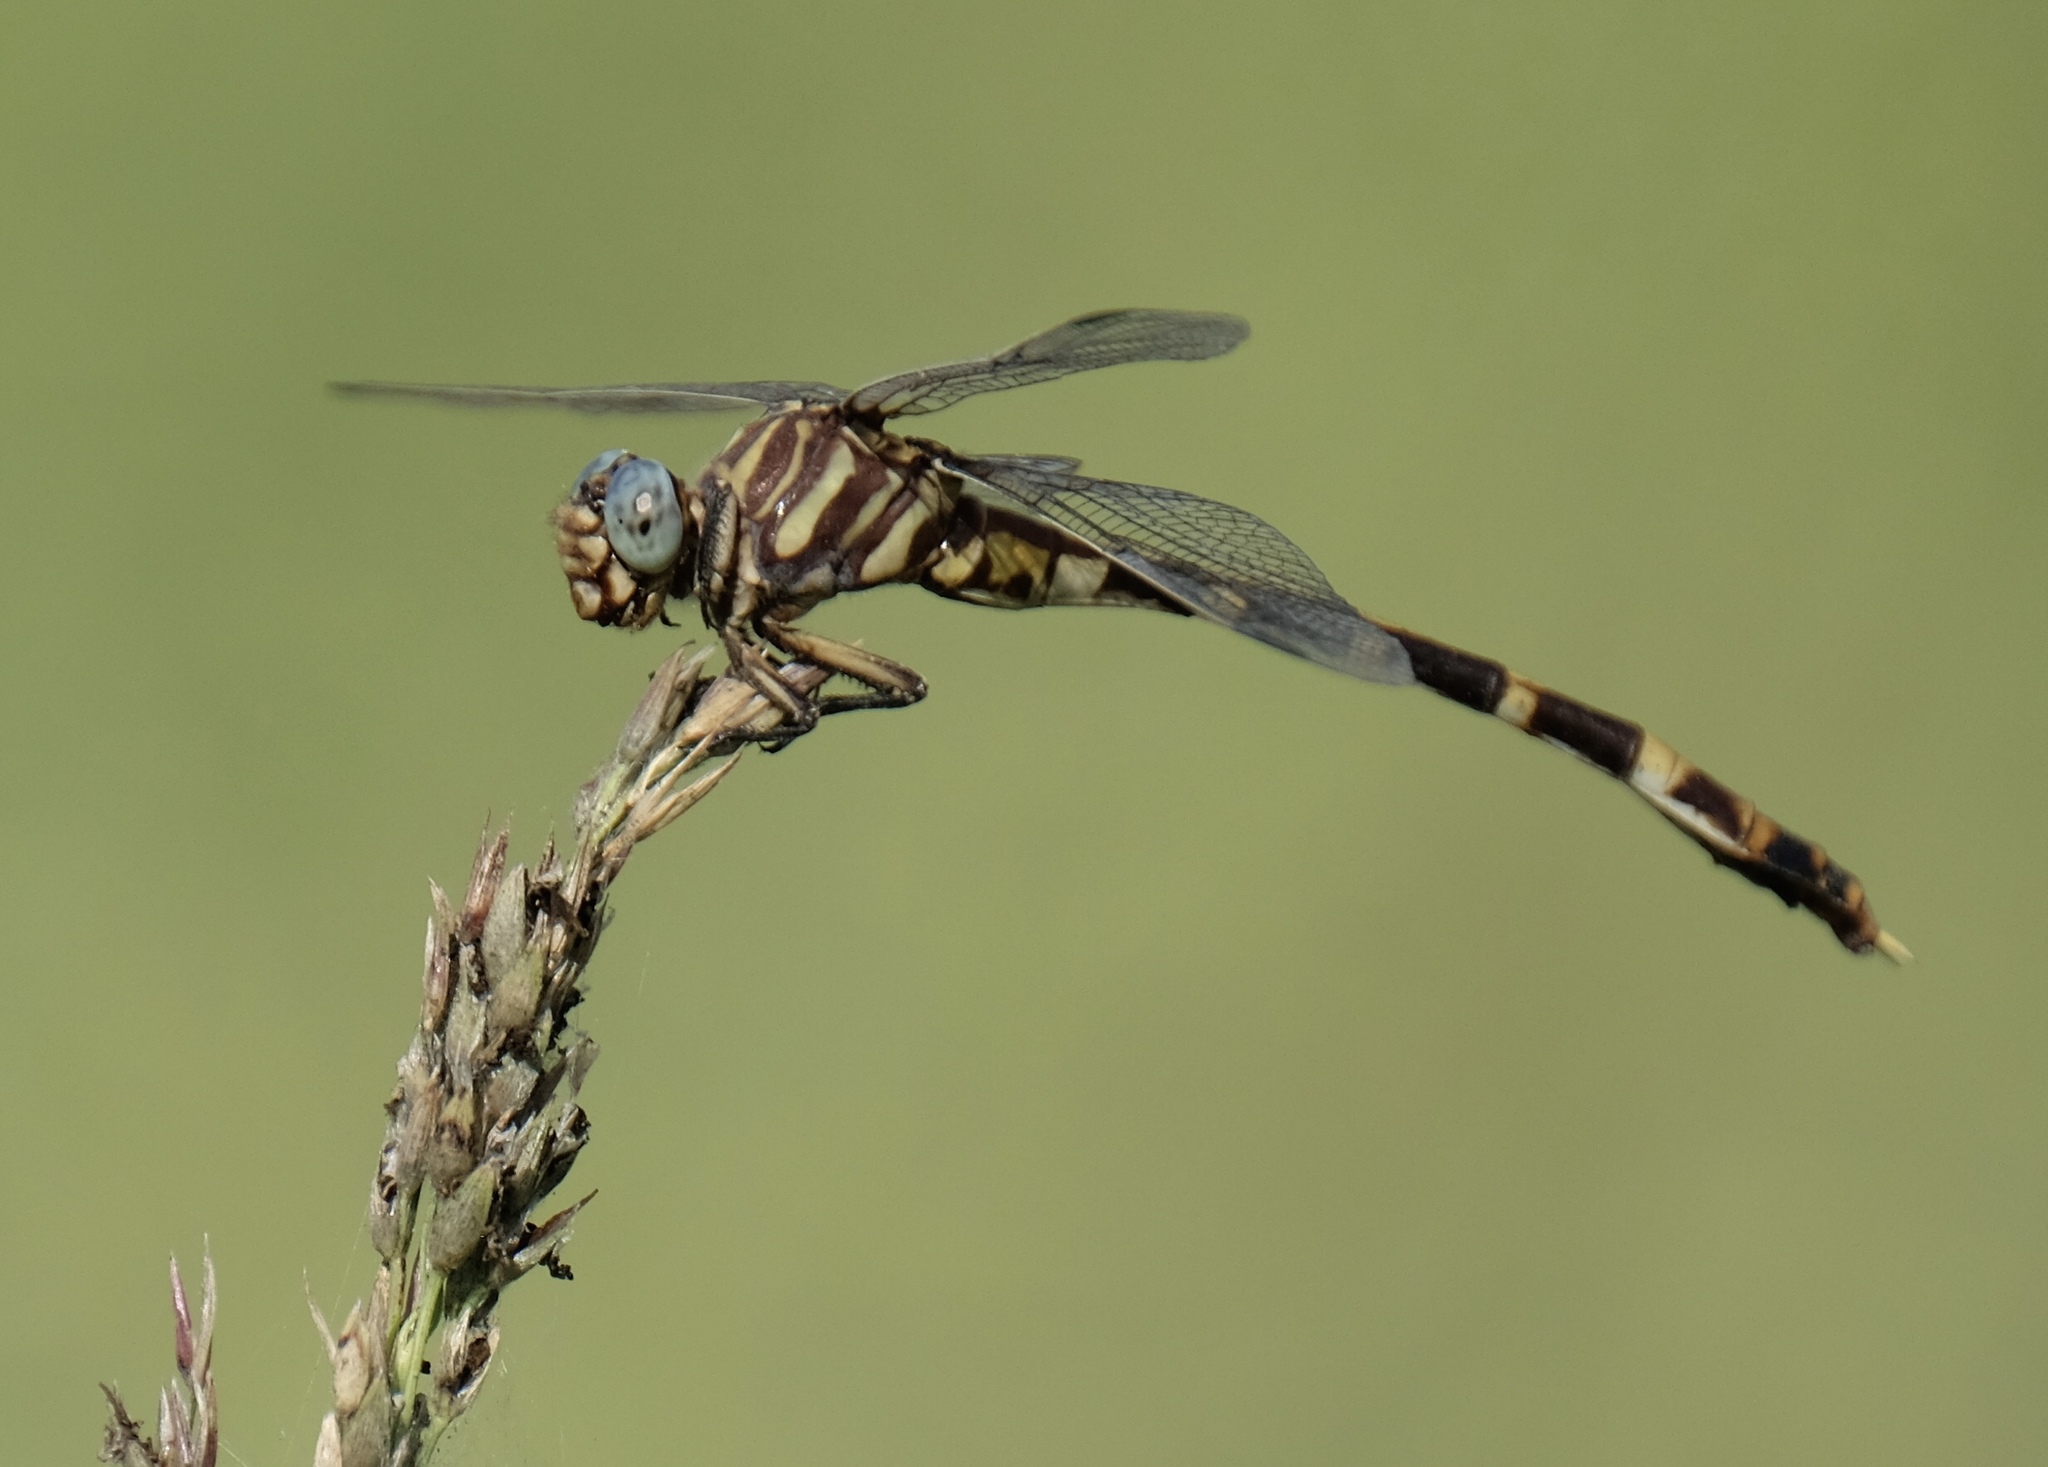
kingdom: Animalia
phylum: Arthropoda
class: Insecta
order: Odonata
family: Gomphidae
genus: Phyllogomphoides
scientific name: Phyllogomphoides albrighti
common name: Five-striped leaftail
